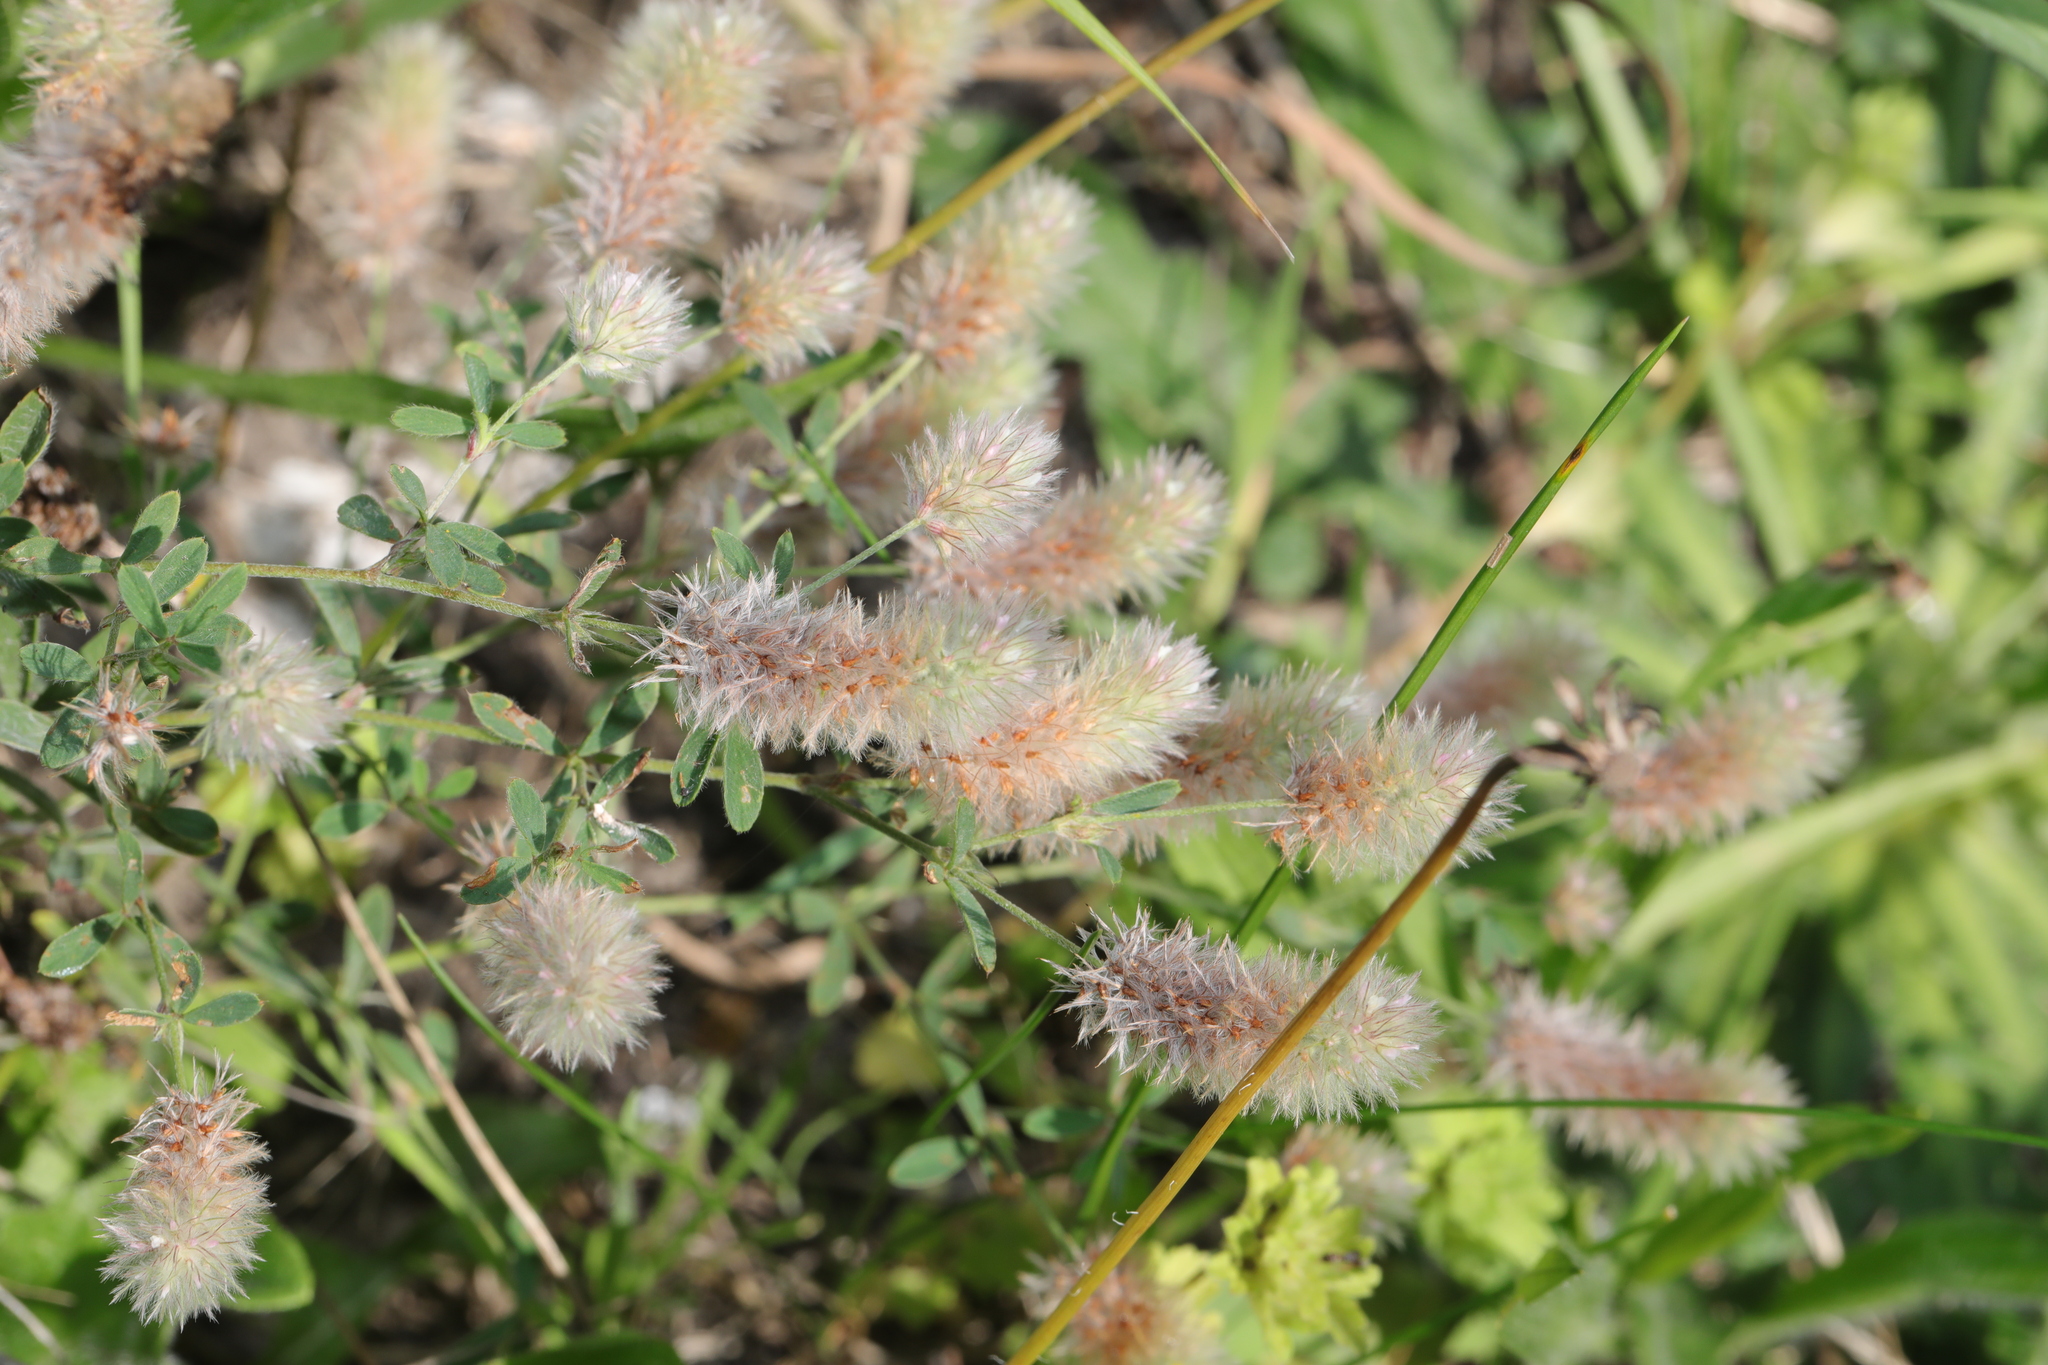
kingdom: Plantae
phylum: Tracheophyta
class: Magnoliopsida
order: Fabales
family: Fabaceae
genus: Trifolium
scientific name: Trifolium arvense
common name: Hare's-foot clover
